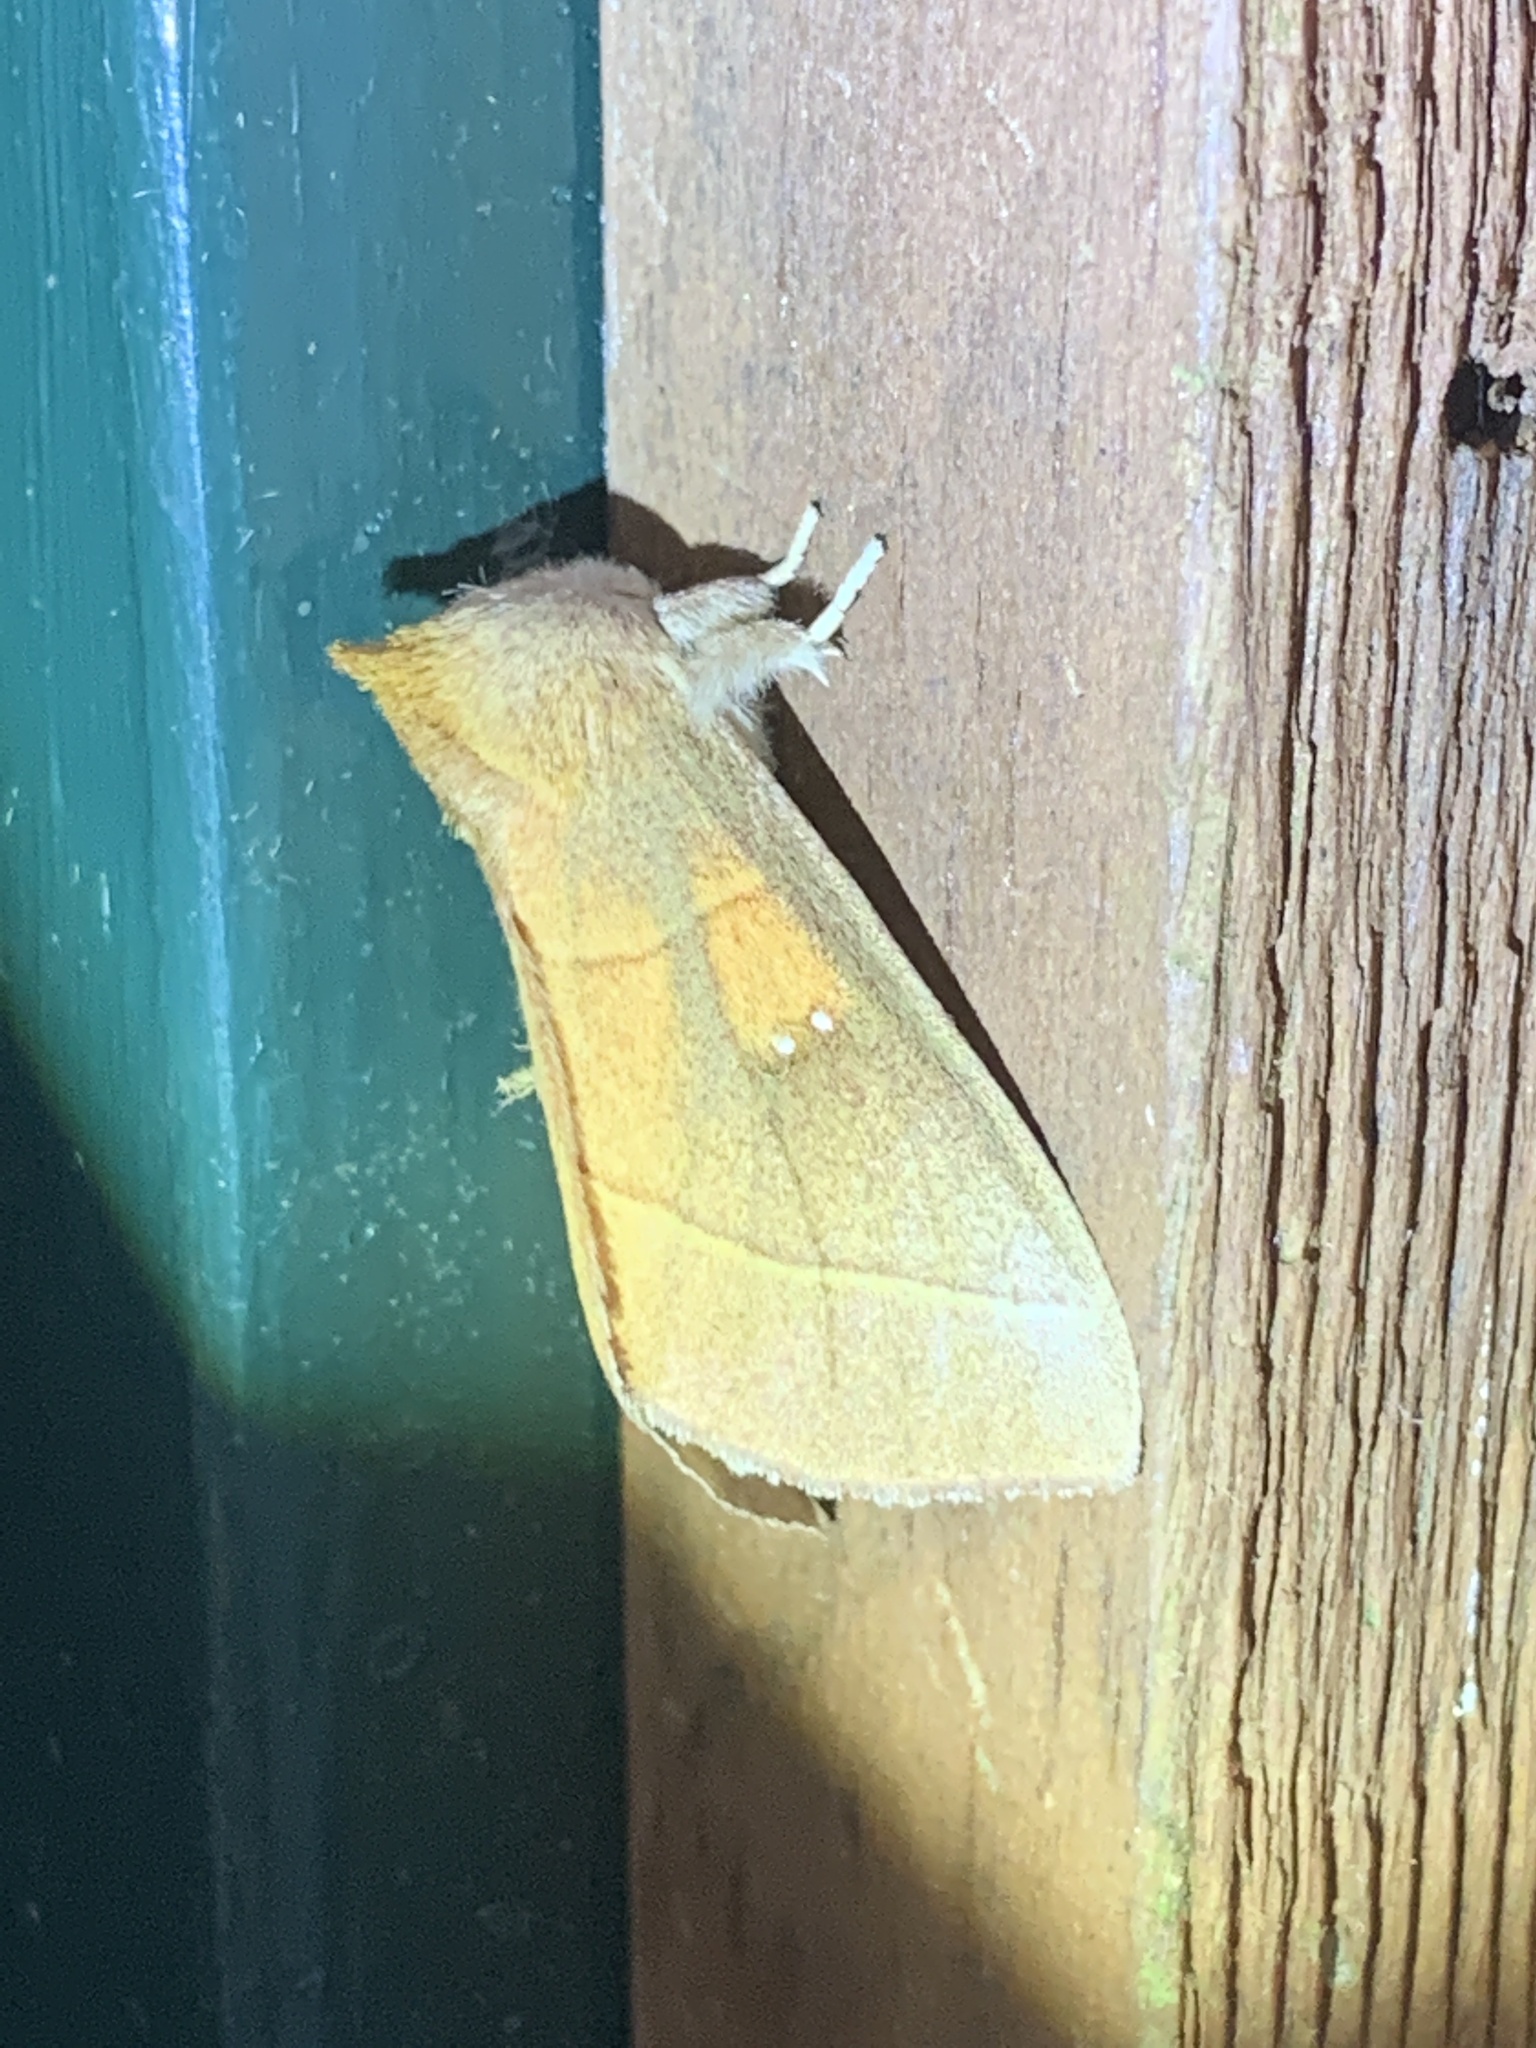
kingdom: Animalia
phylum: Arthropoda
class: Insecta
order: Lepidoptera
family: Notodontidae
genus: Nadata
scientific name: Nadata gibbosa
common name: White-dotted prominent
